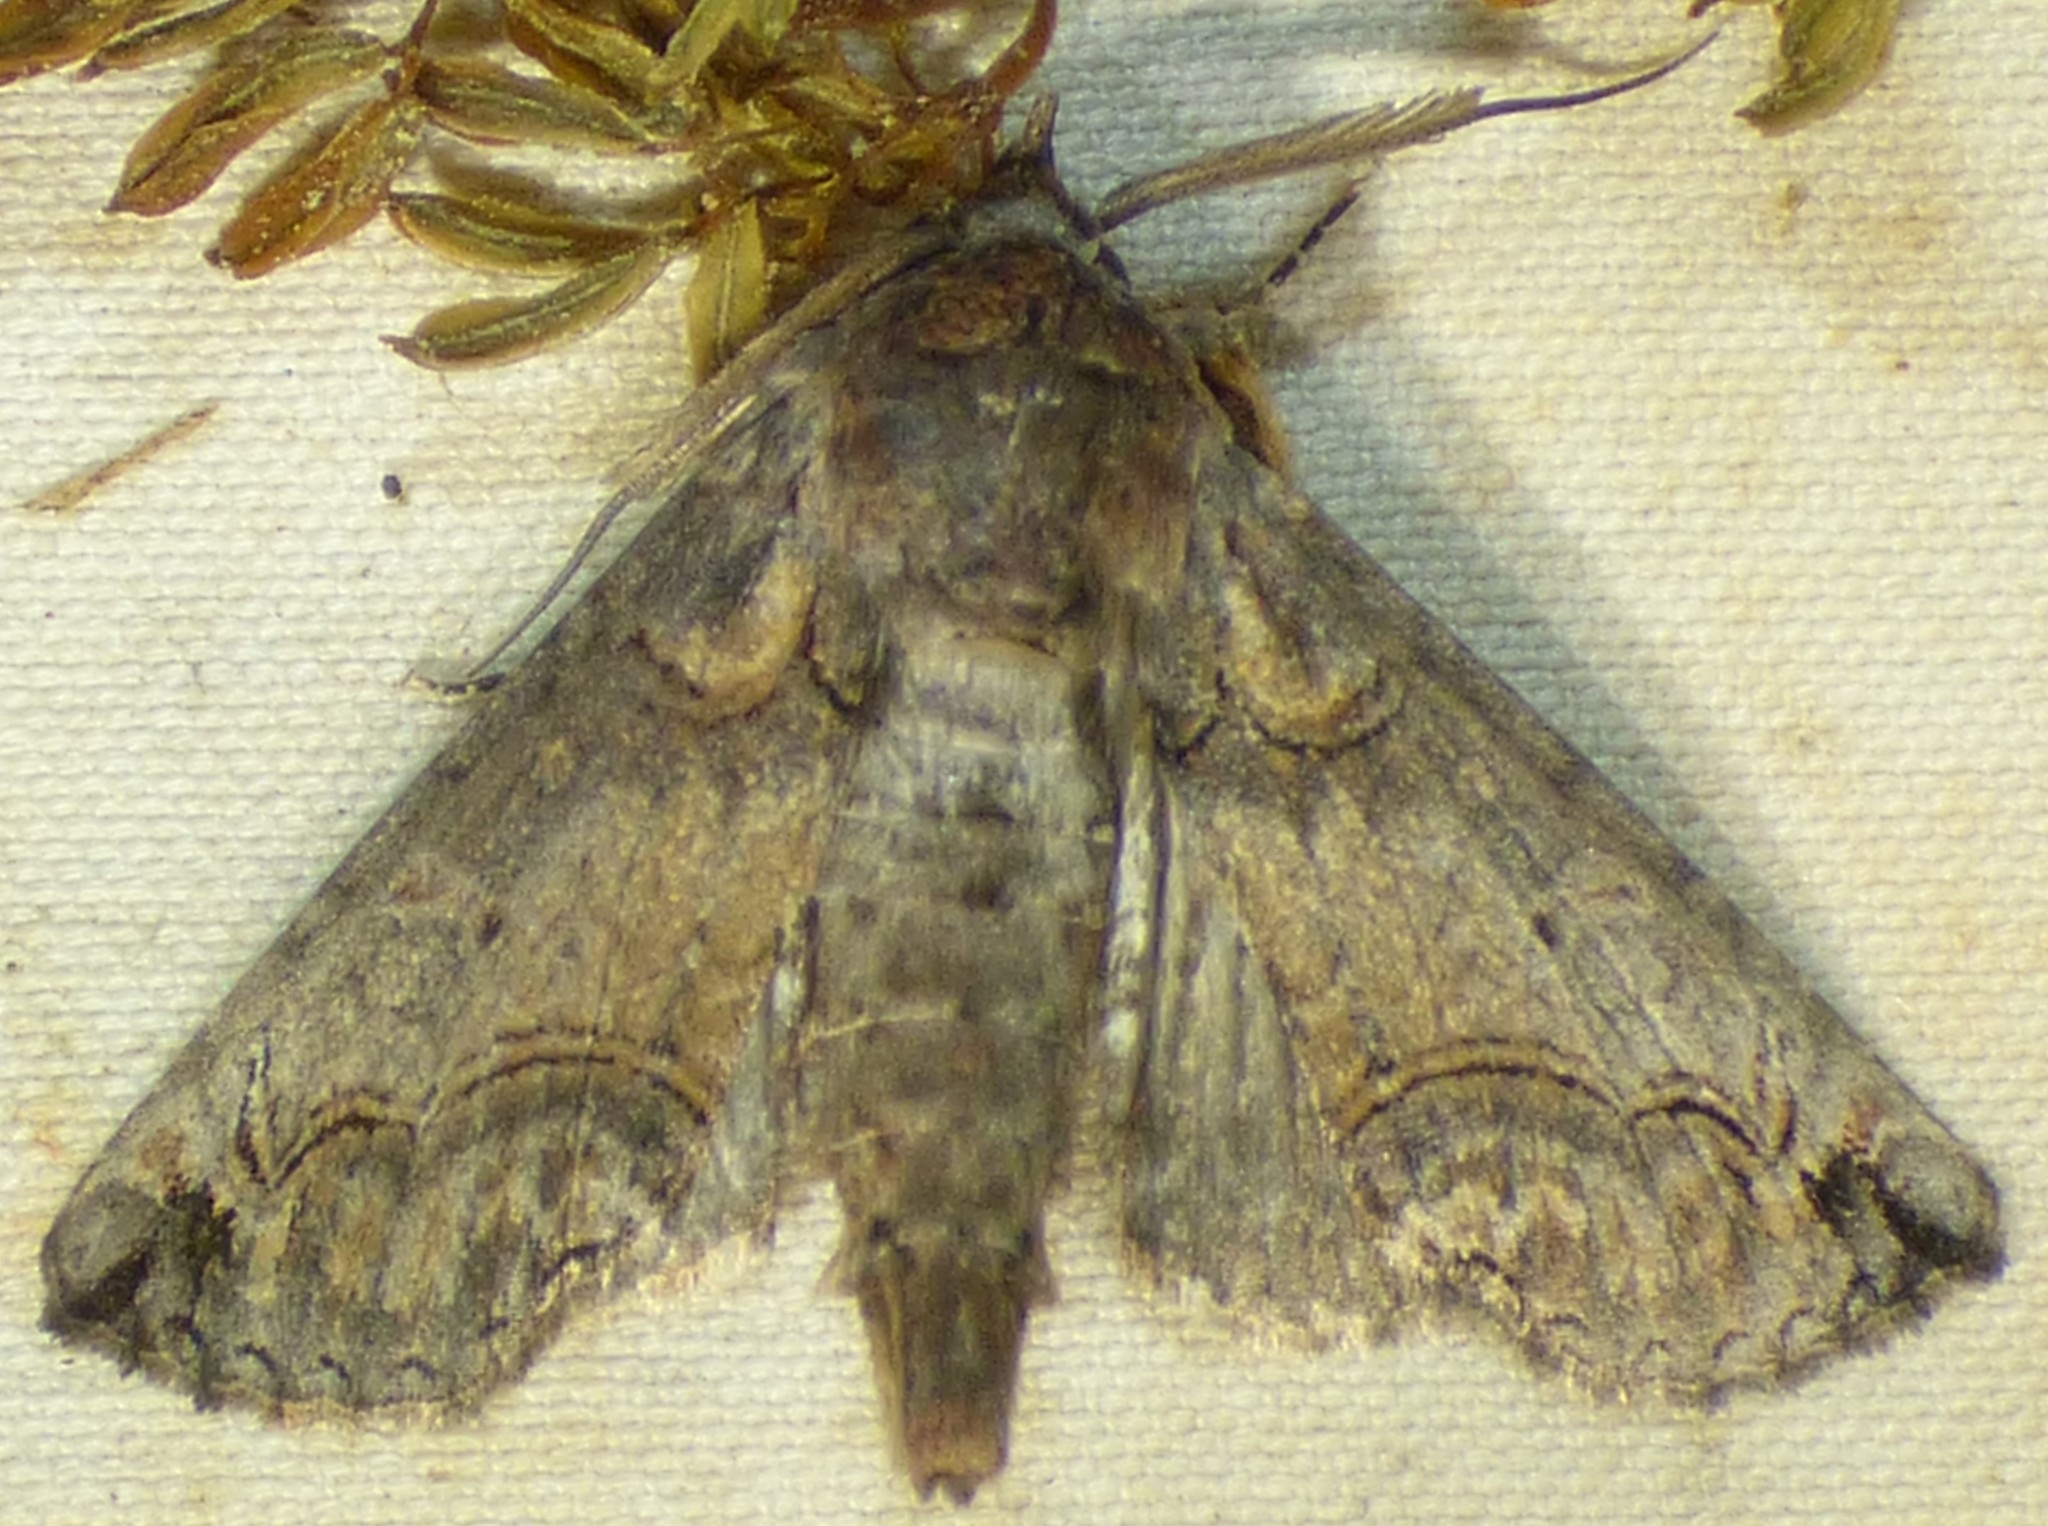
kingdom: Animalia
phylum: Arthropoda
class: Insecta
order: Lepidoptera
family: Euteliidae
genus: Paectes
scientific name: Paectes abrostoloides
